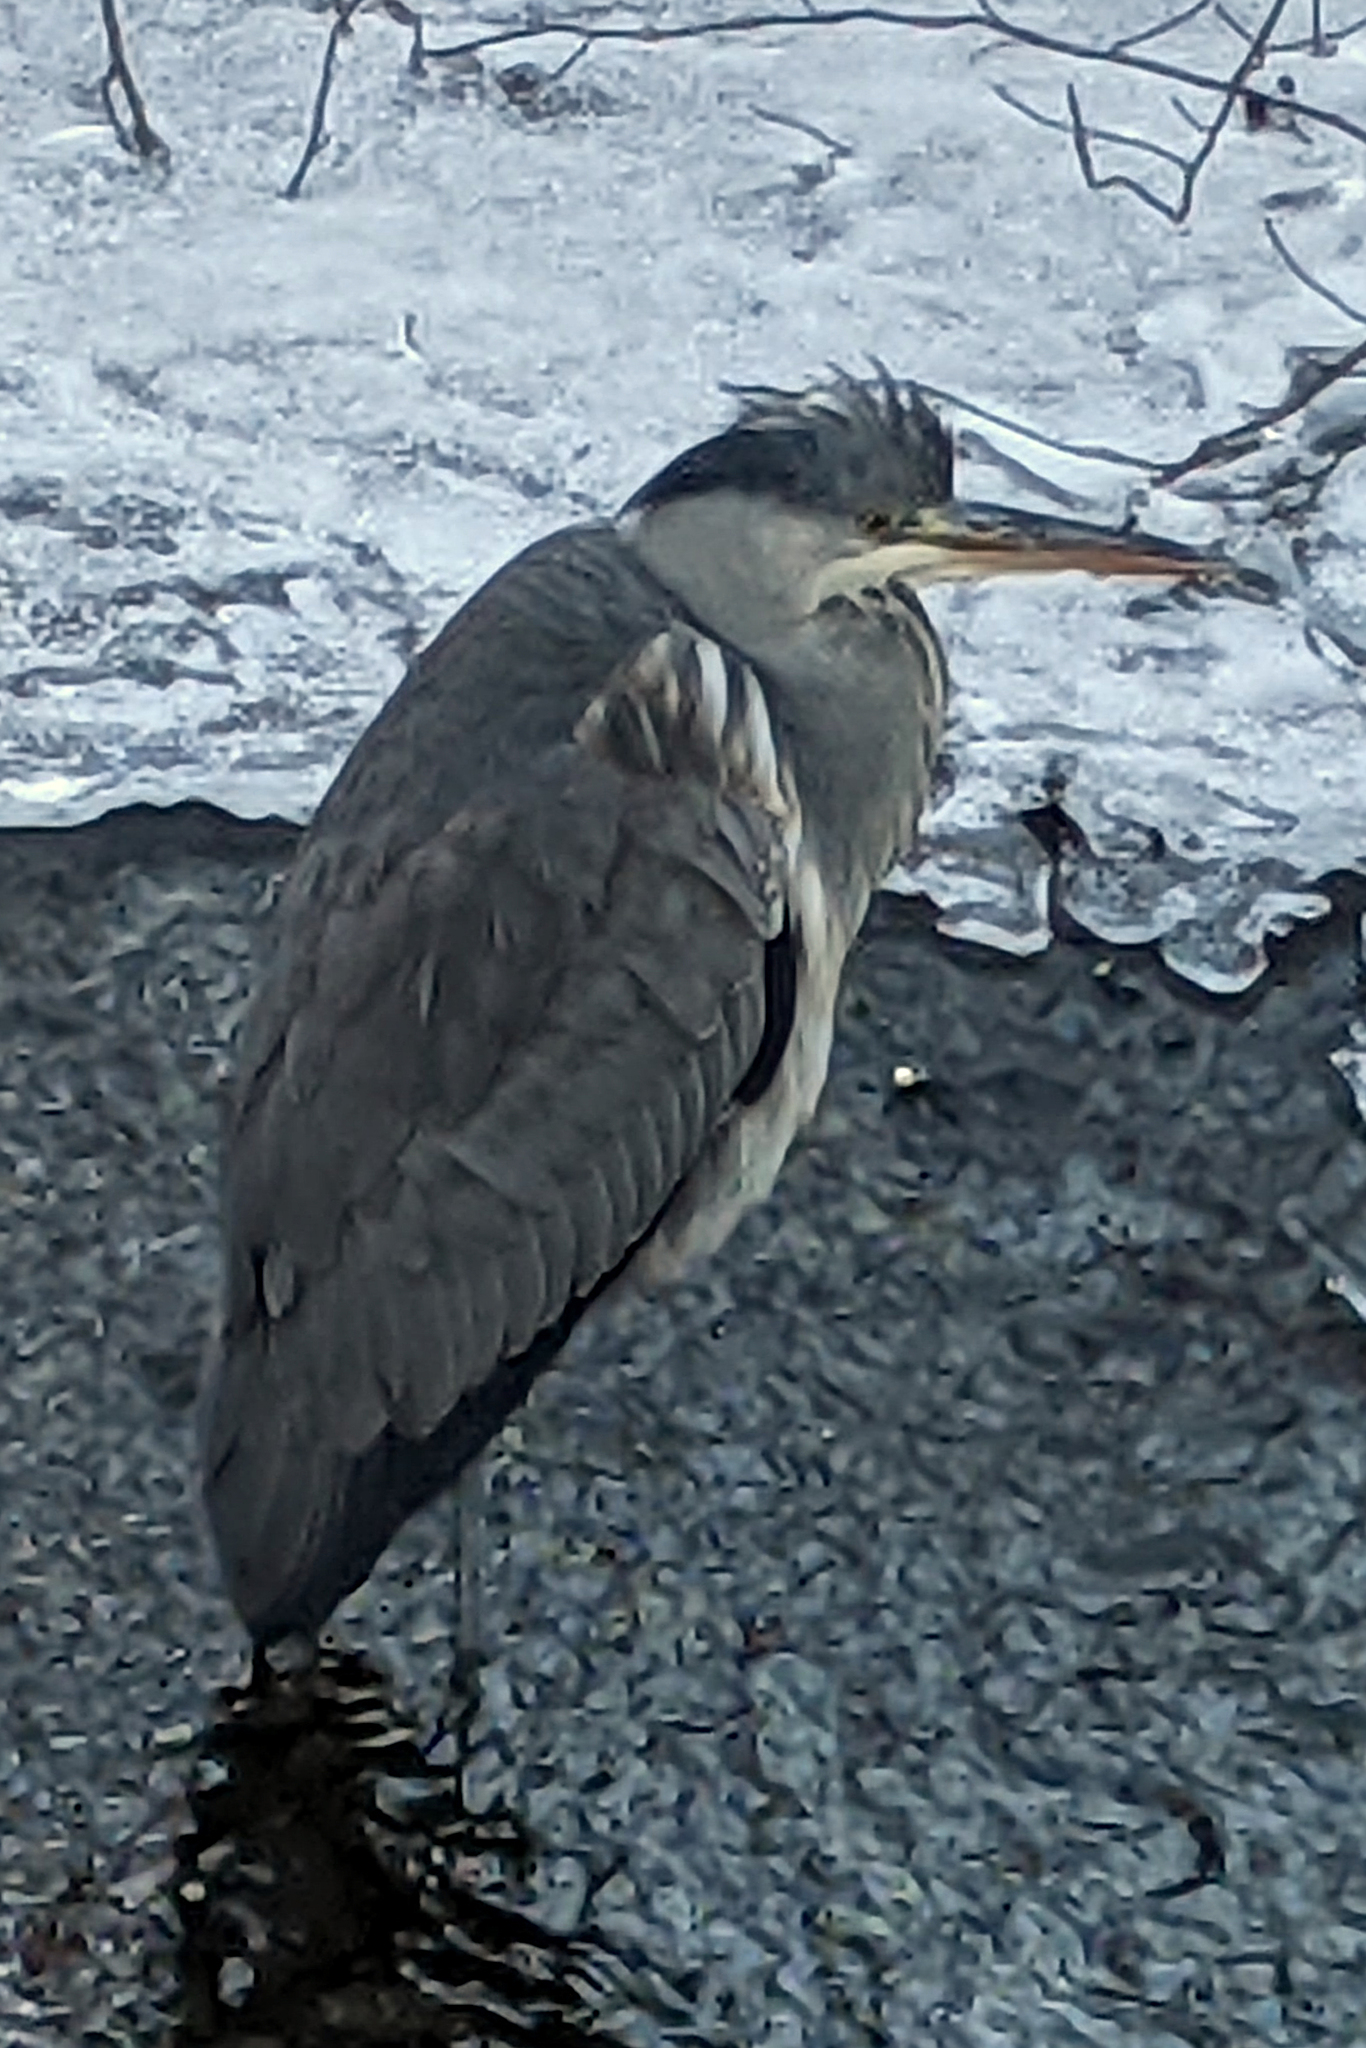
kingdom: Animalia
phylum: Chordata
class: Aves
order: Pelecaniformes
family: Ardeidae
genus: Ardea
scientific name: Ardea cinerea
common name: Grey heron
